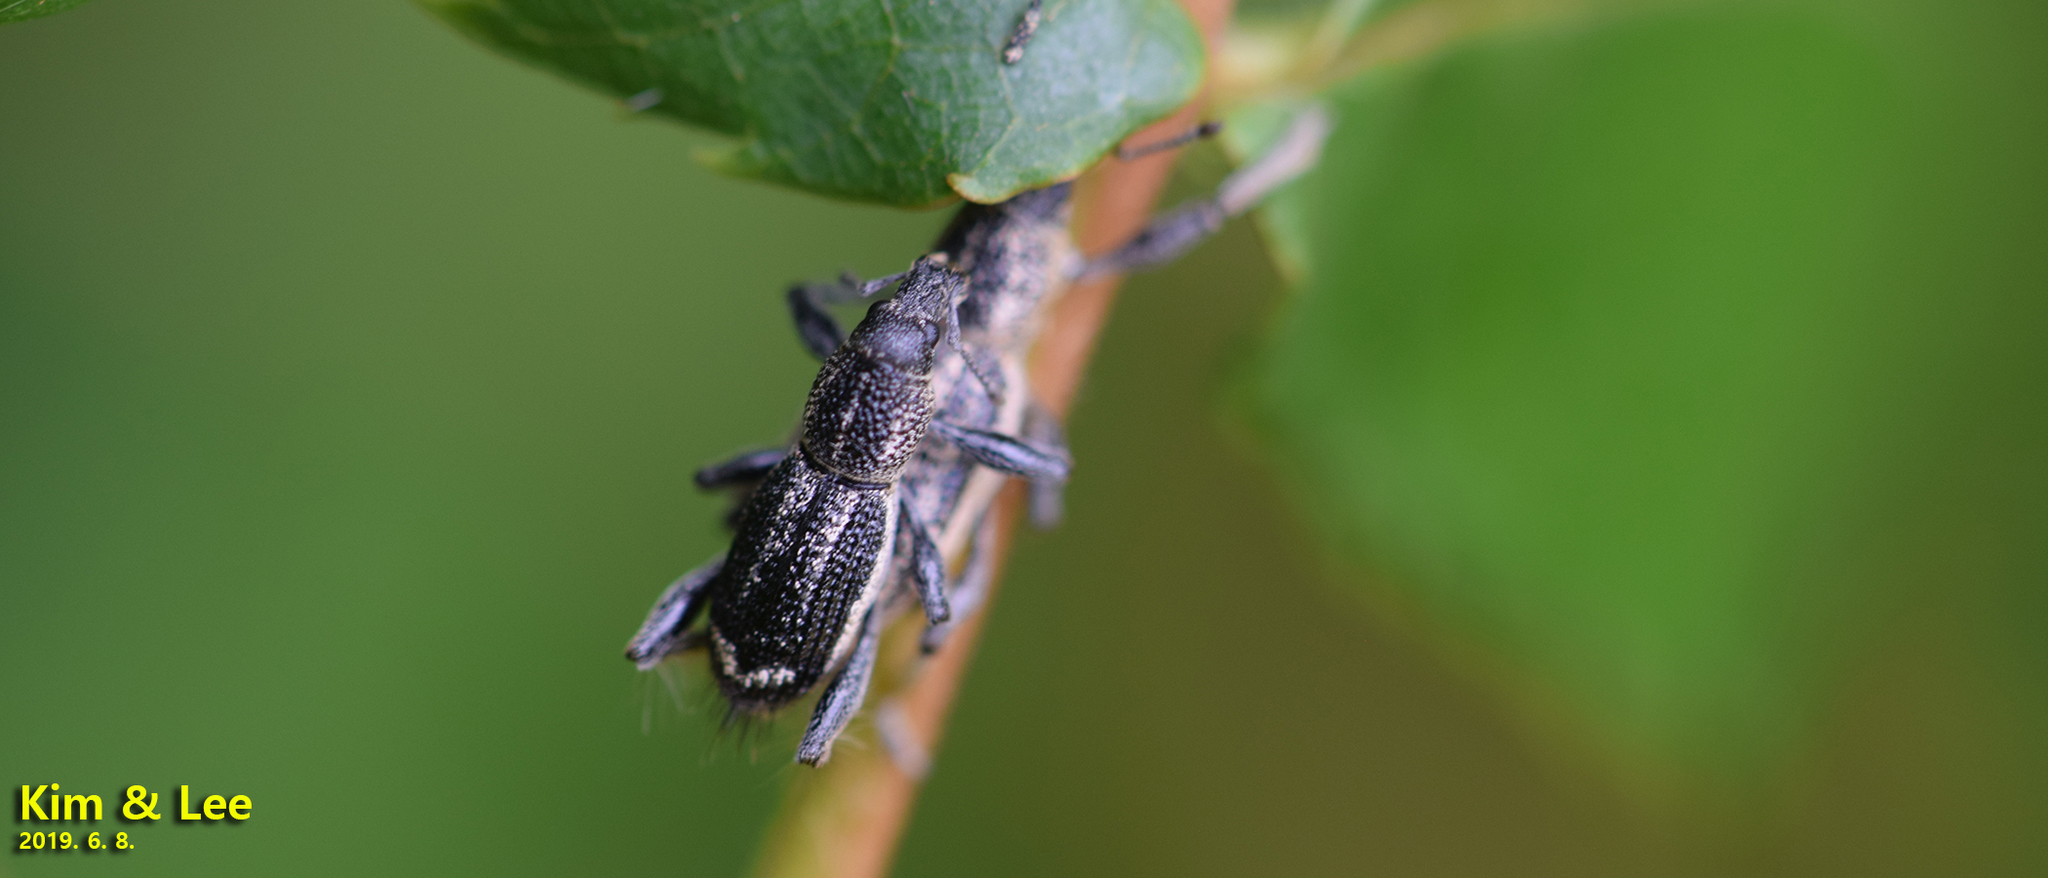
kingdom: Animalia
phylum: Arthropoda
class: Insecta
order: Coleoptera
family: Curculionidae
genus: Enaptorhinus
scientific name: Enaptorhinus granulatus
